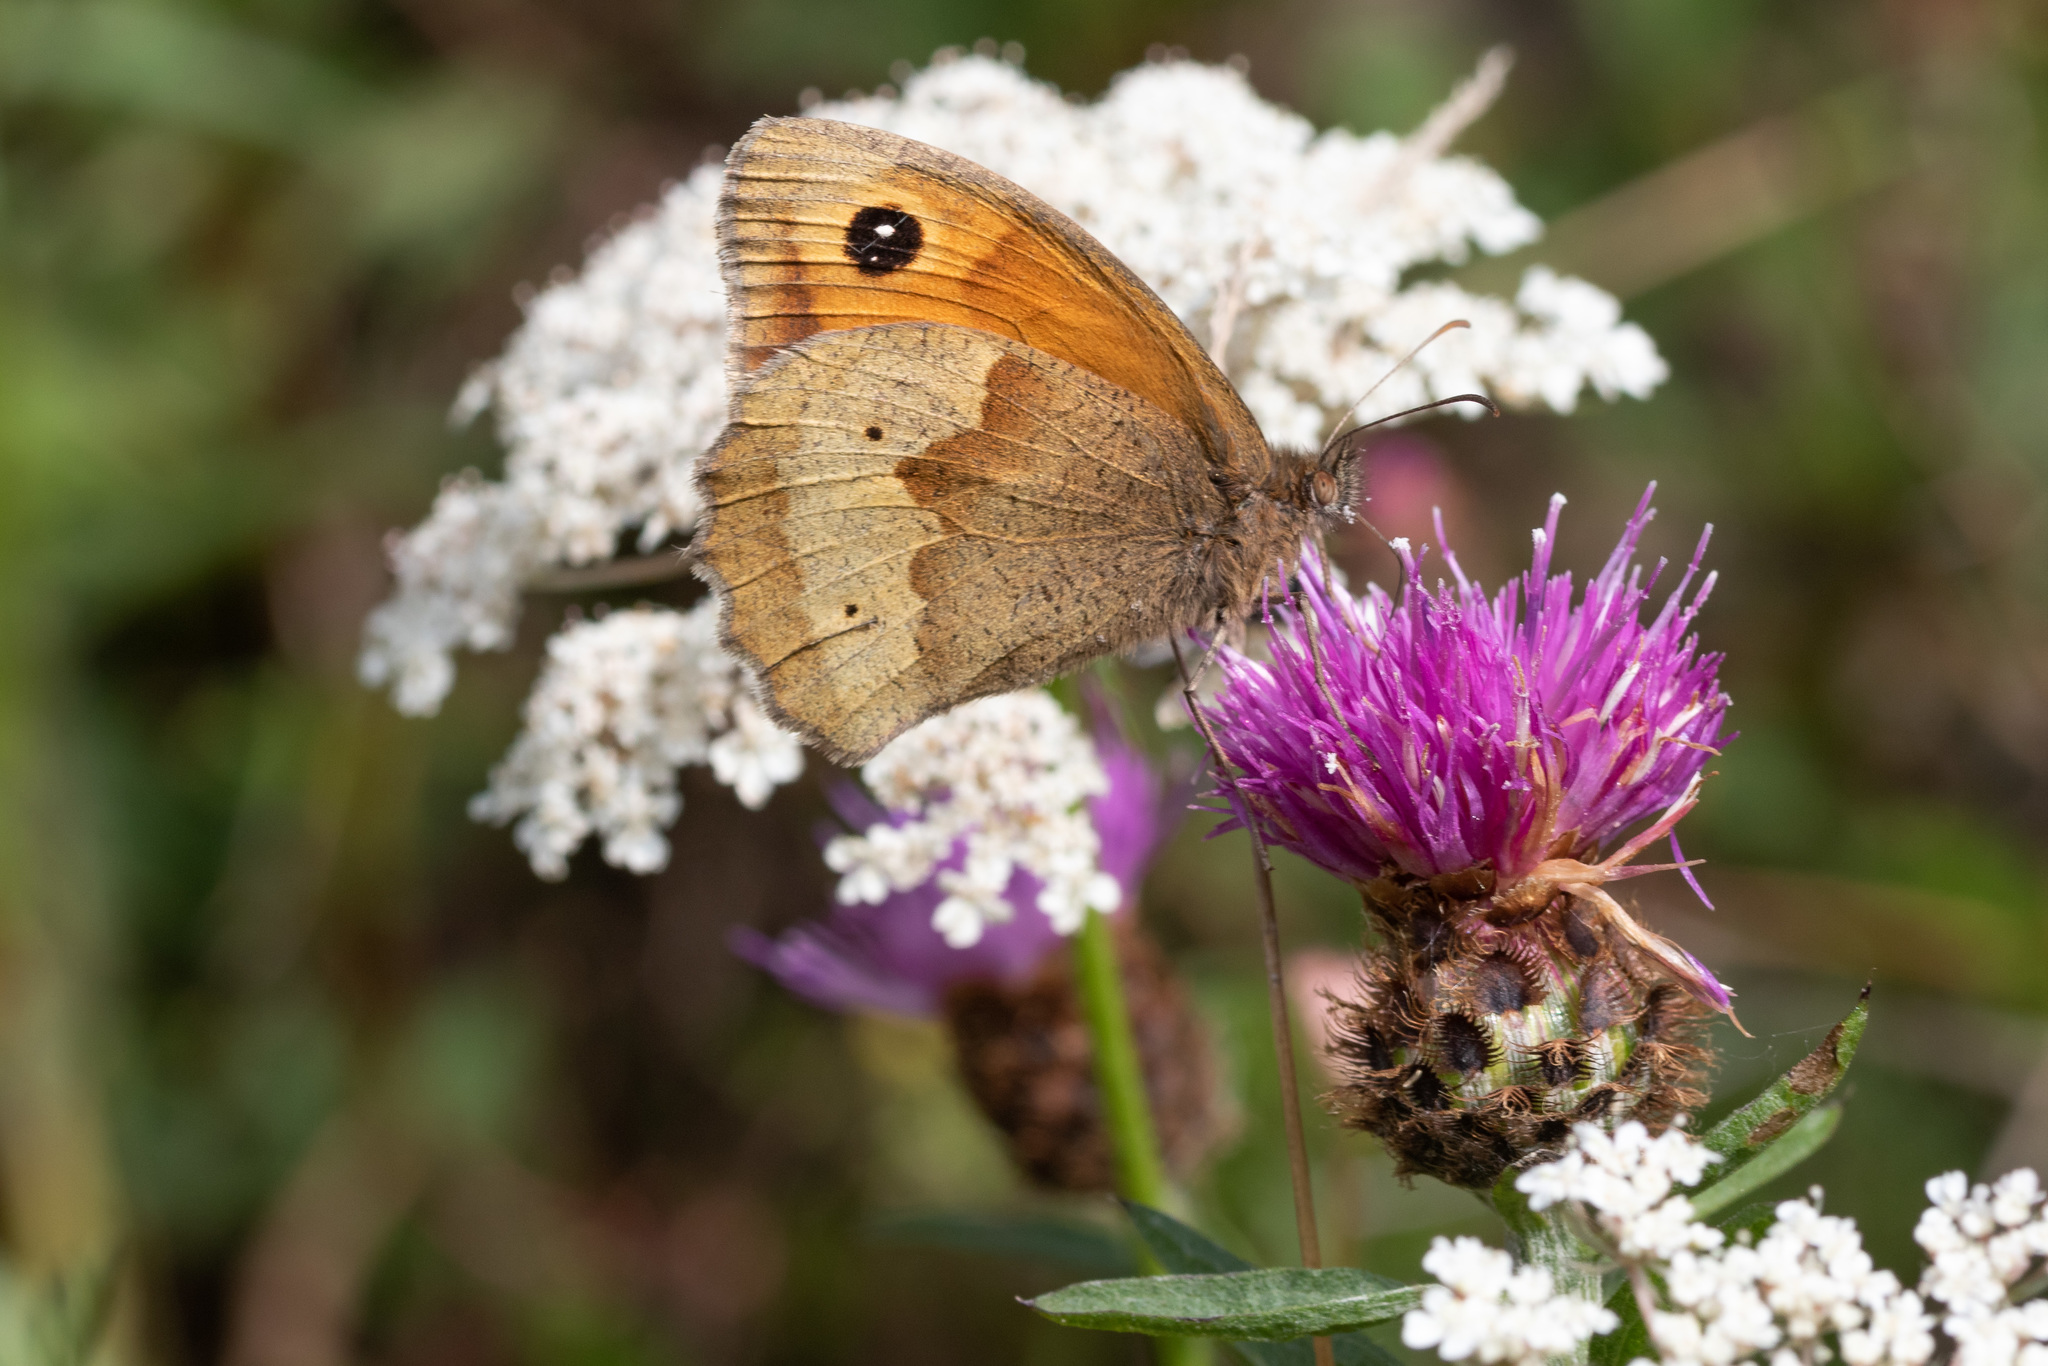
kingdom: Animalia
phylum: Arthropoda
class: Insecta
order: Lepidoptera
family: Nymphalidae
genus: Maniola
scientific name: Maniola jurtina
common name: Meadow brown
